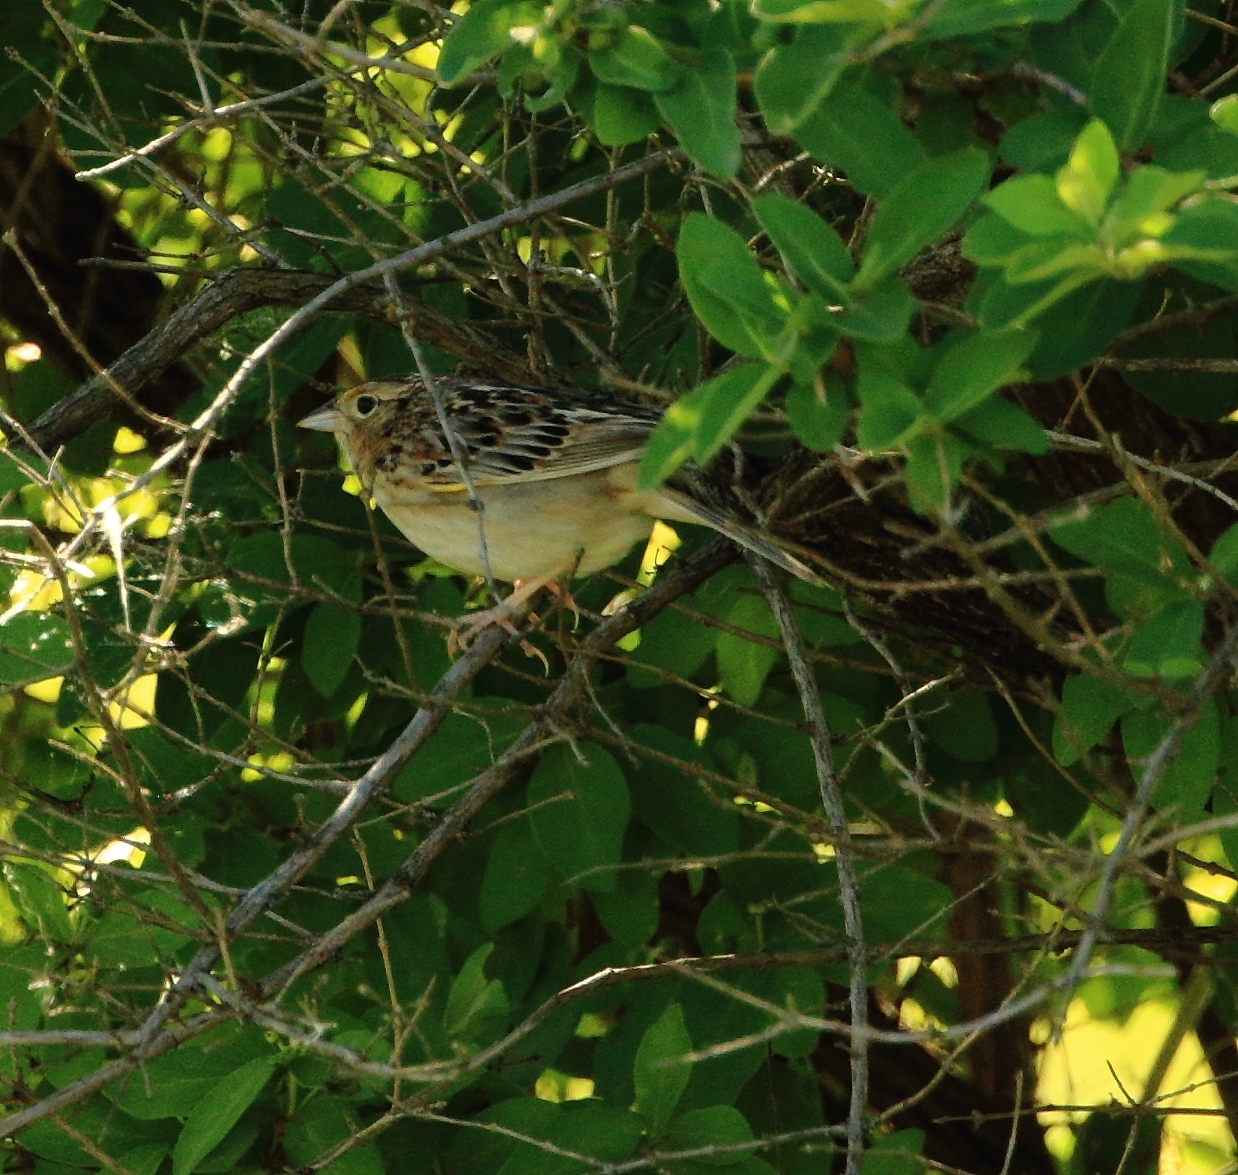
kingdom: Animalia
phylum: Chordata
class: Aves
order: Passeriformes
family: Passerellidae
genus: Ammodramus
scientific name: Ammodramus savannarum
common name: Grasshopper sparrow
